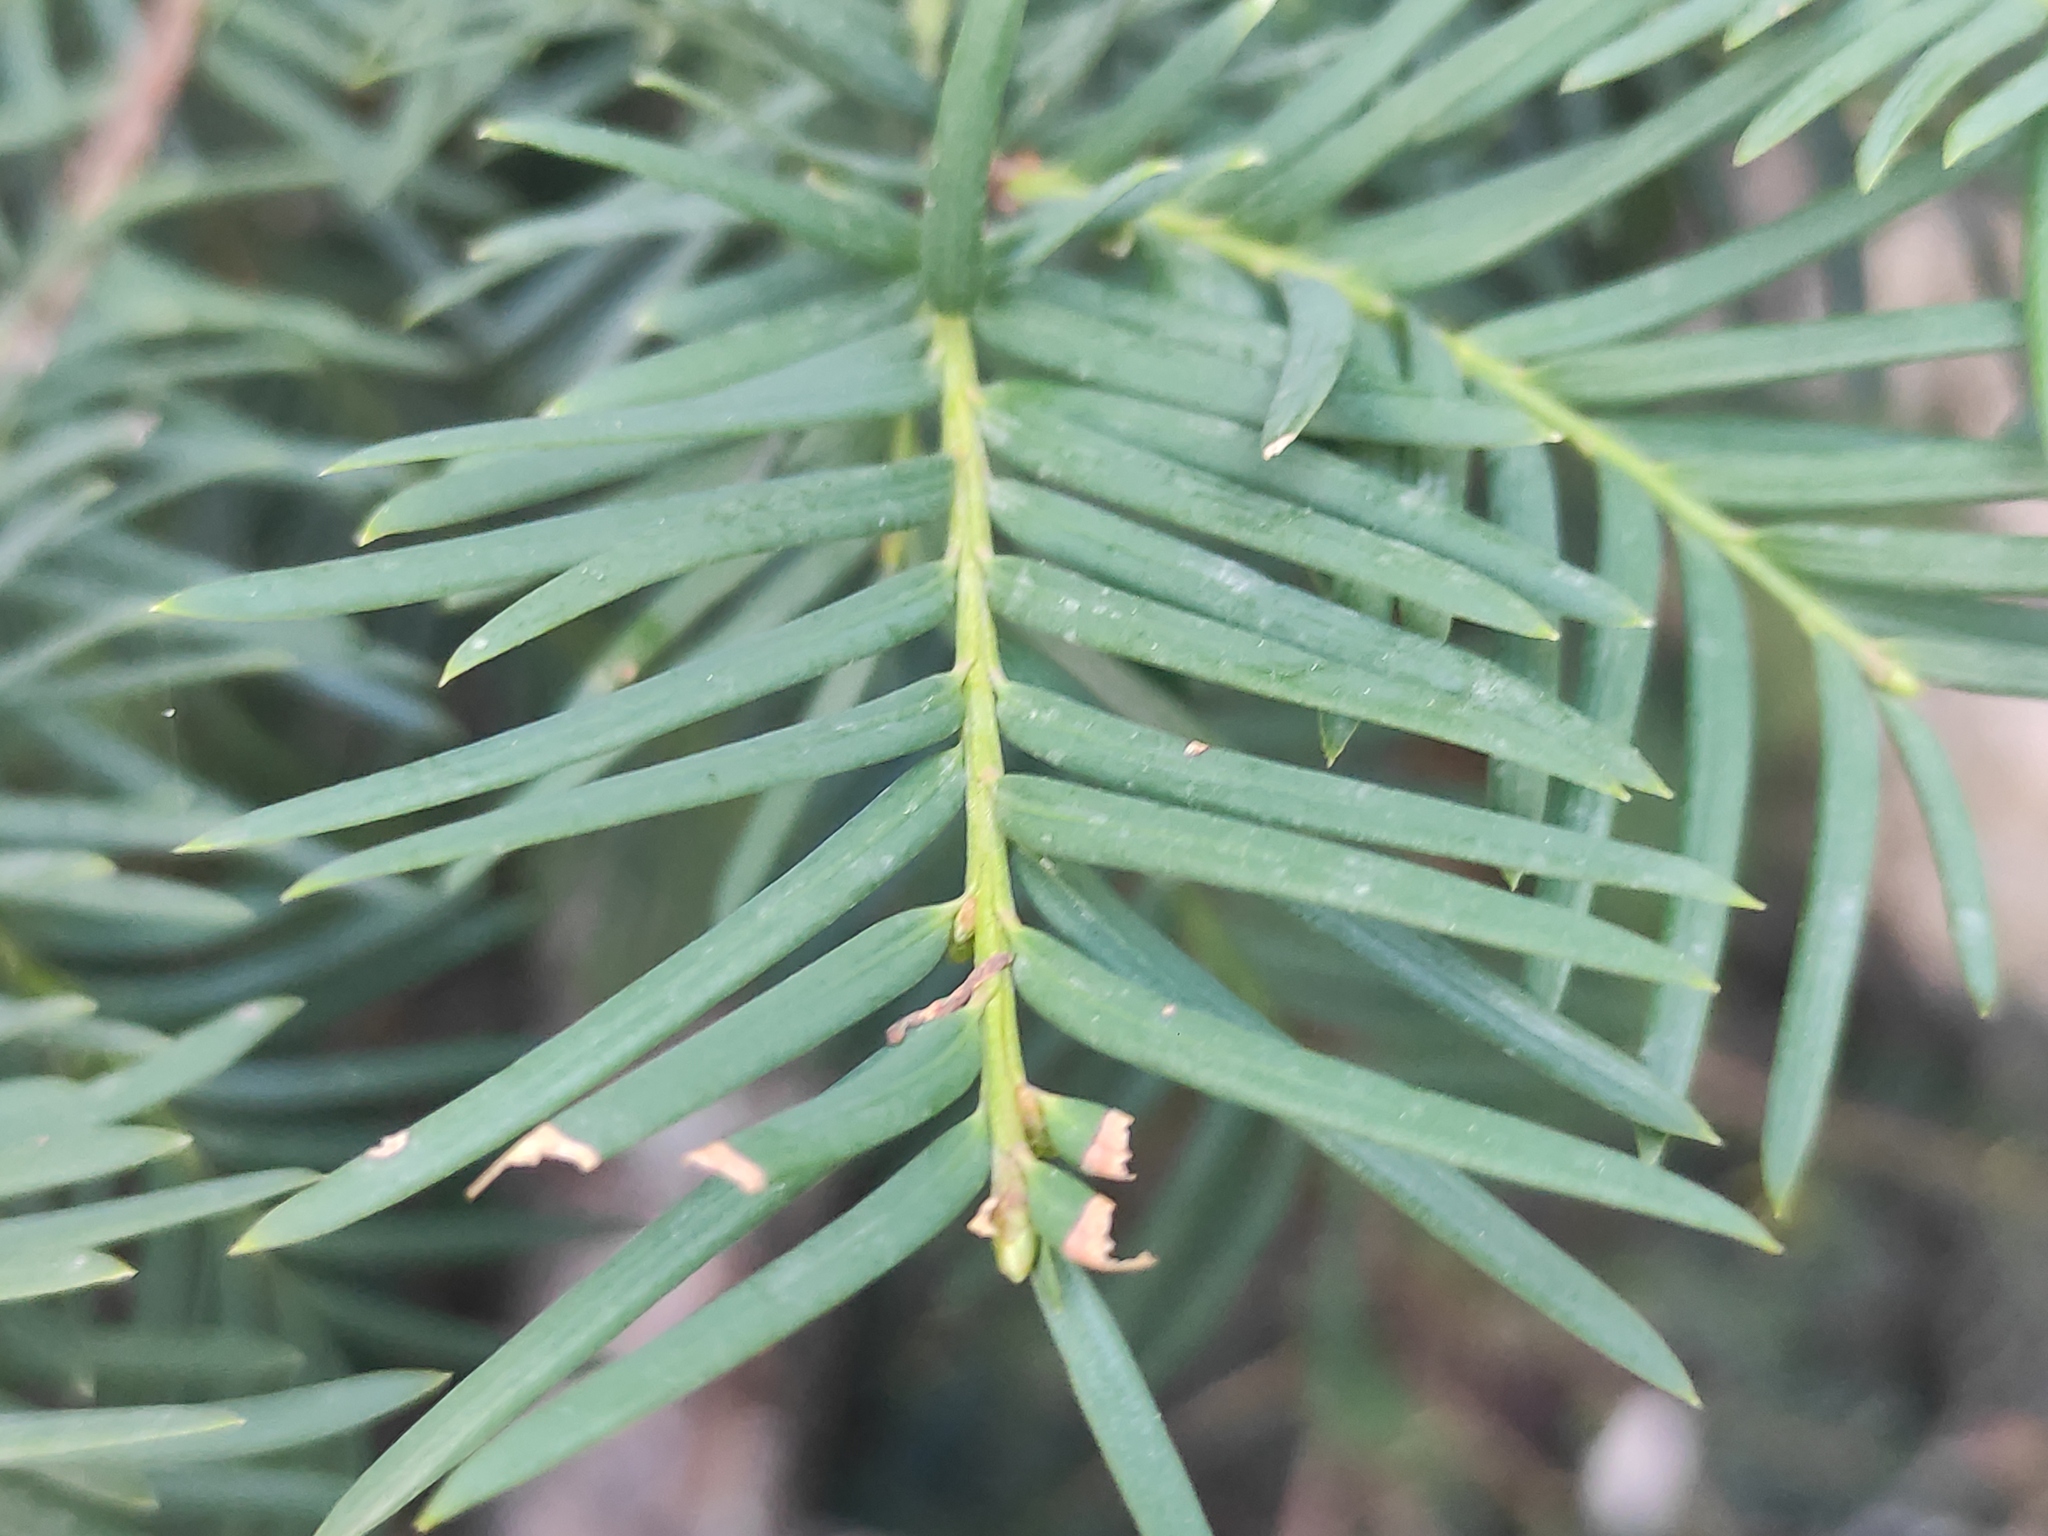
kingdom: Plantae
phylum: Tracheophyta
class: Pinopsida
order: Pinales
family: Taxaceae
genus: Taxus
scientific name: Taxus baccata
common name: Yew
